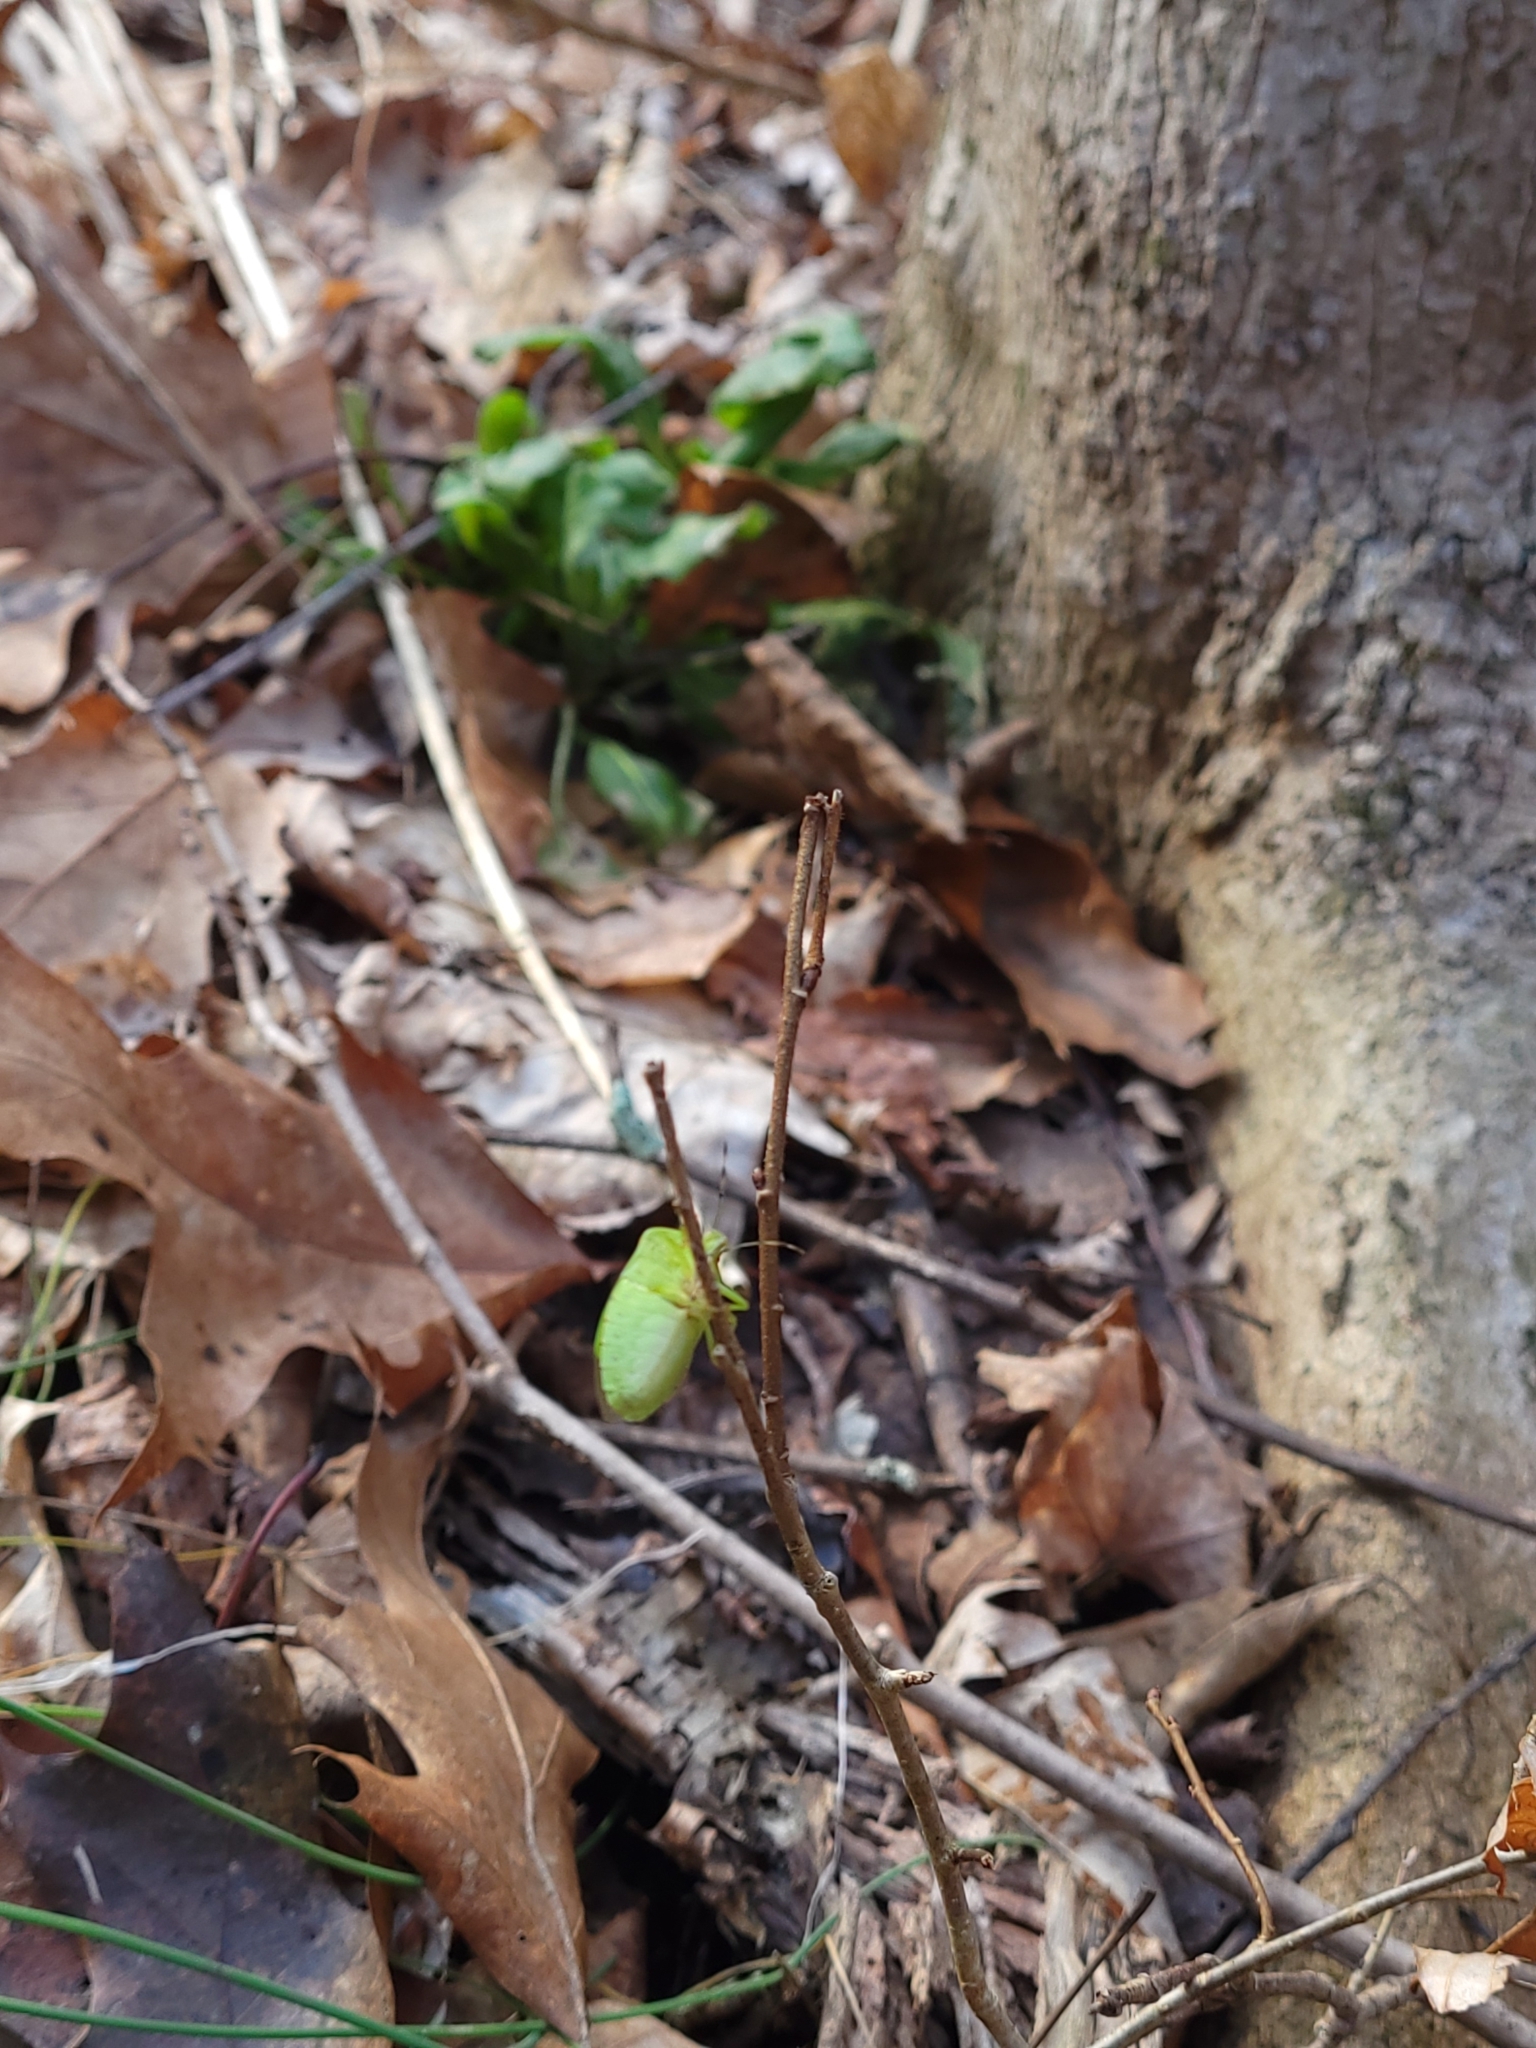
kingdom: Animalia
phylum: Arthropoda
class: Insecta
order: Hemiptera
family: Pentatomidae
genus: Chinavia
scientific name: Chinavia hilaris
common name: Green stink bug
